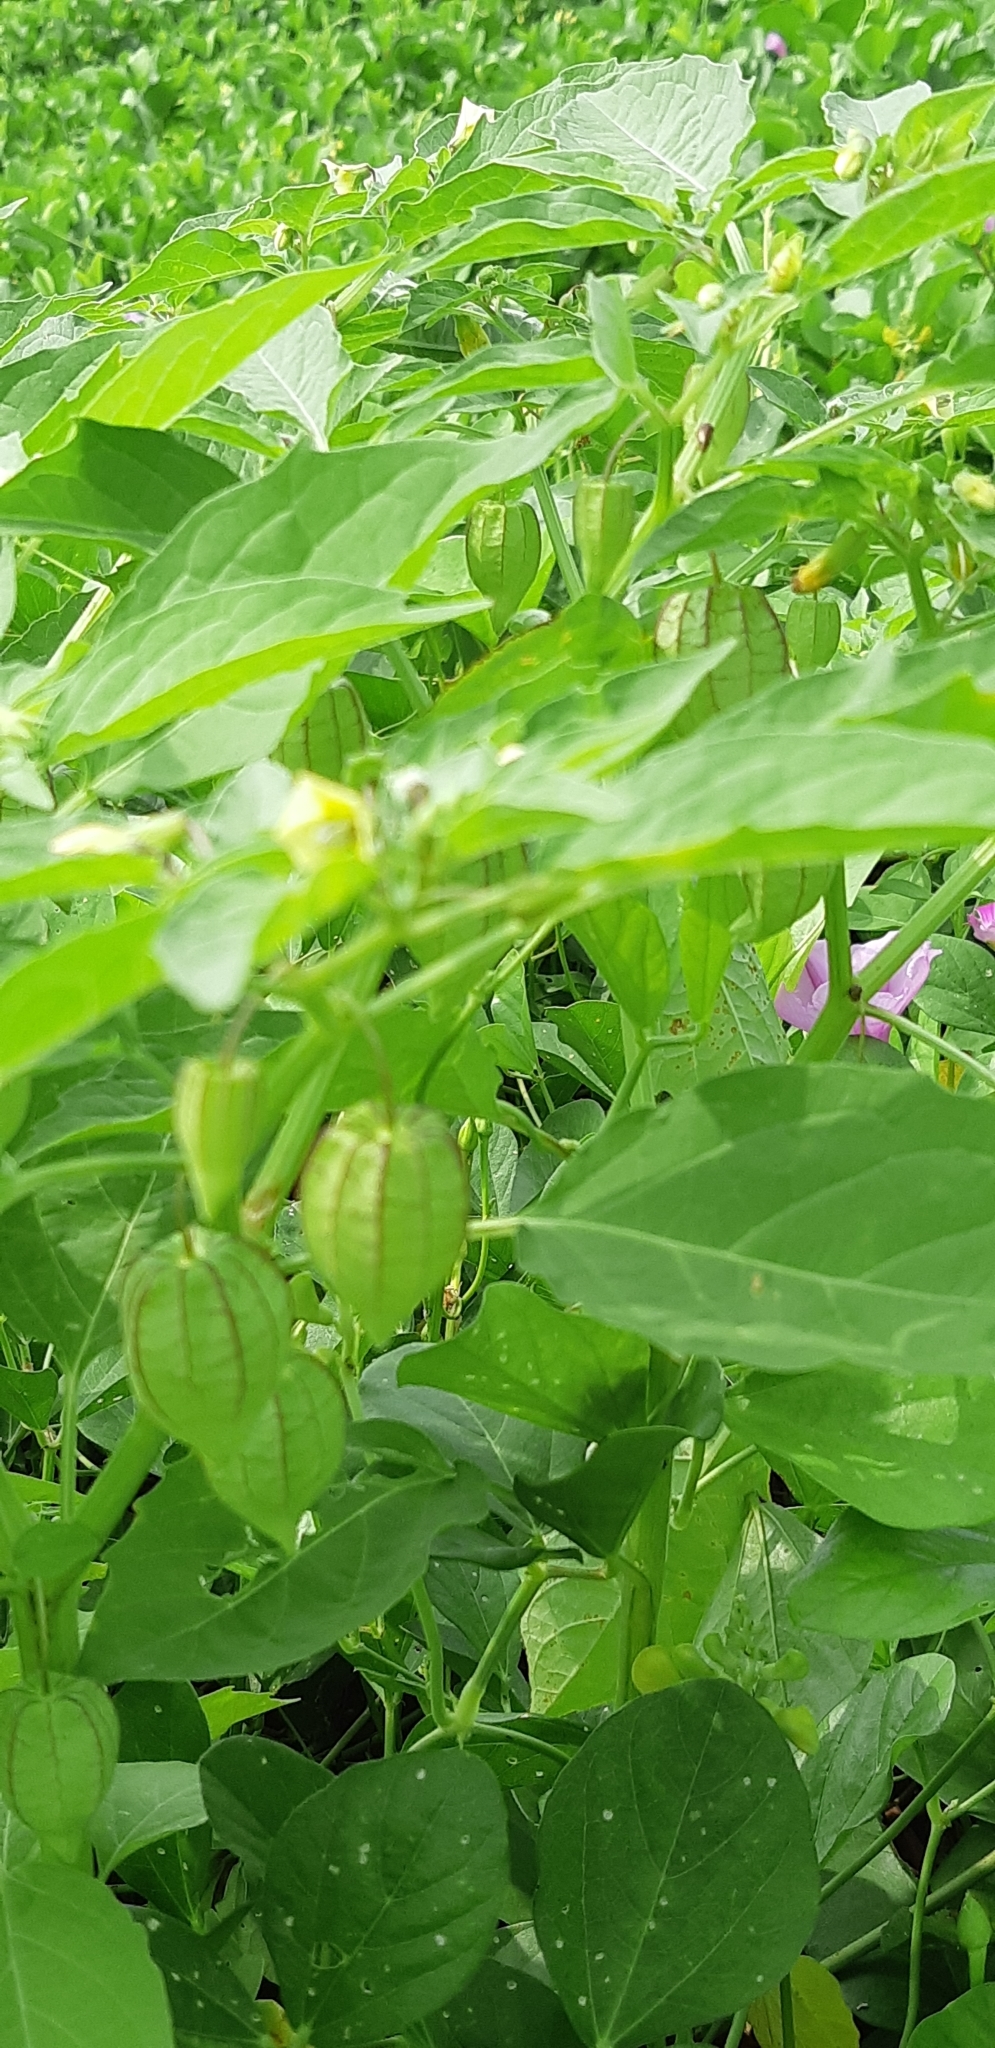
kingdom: Plantae
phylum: Tracheophyta
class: Magnoliopsida
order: Solanales
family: Solanaceae
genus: Physalis
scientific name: Physalis angulata
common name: Angular winter-cherry
